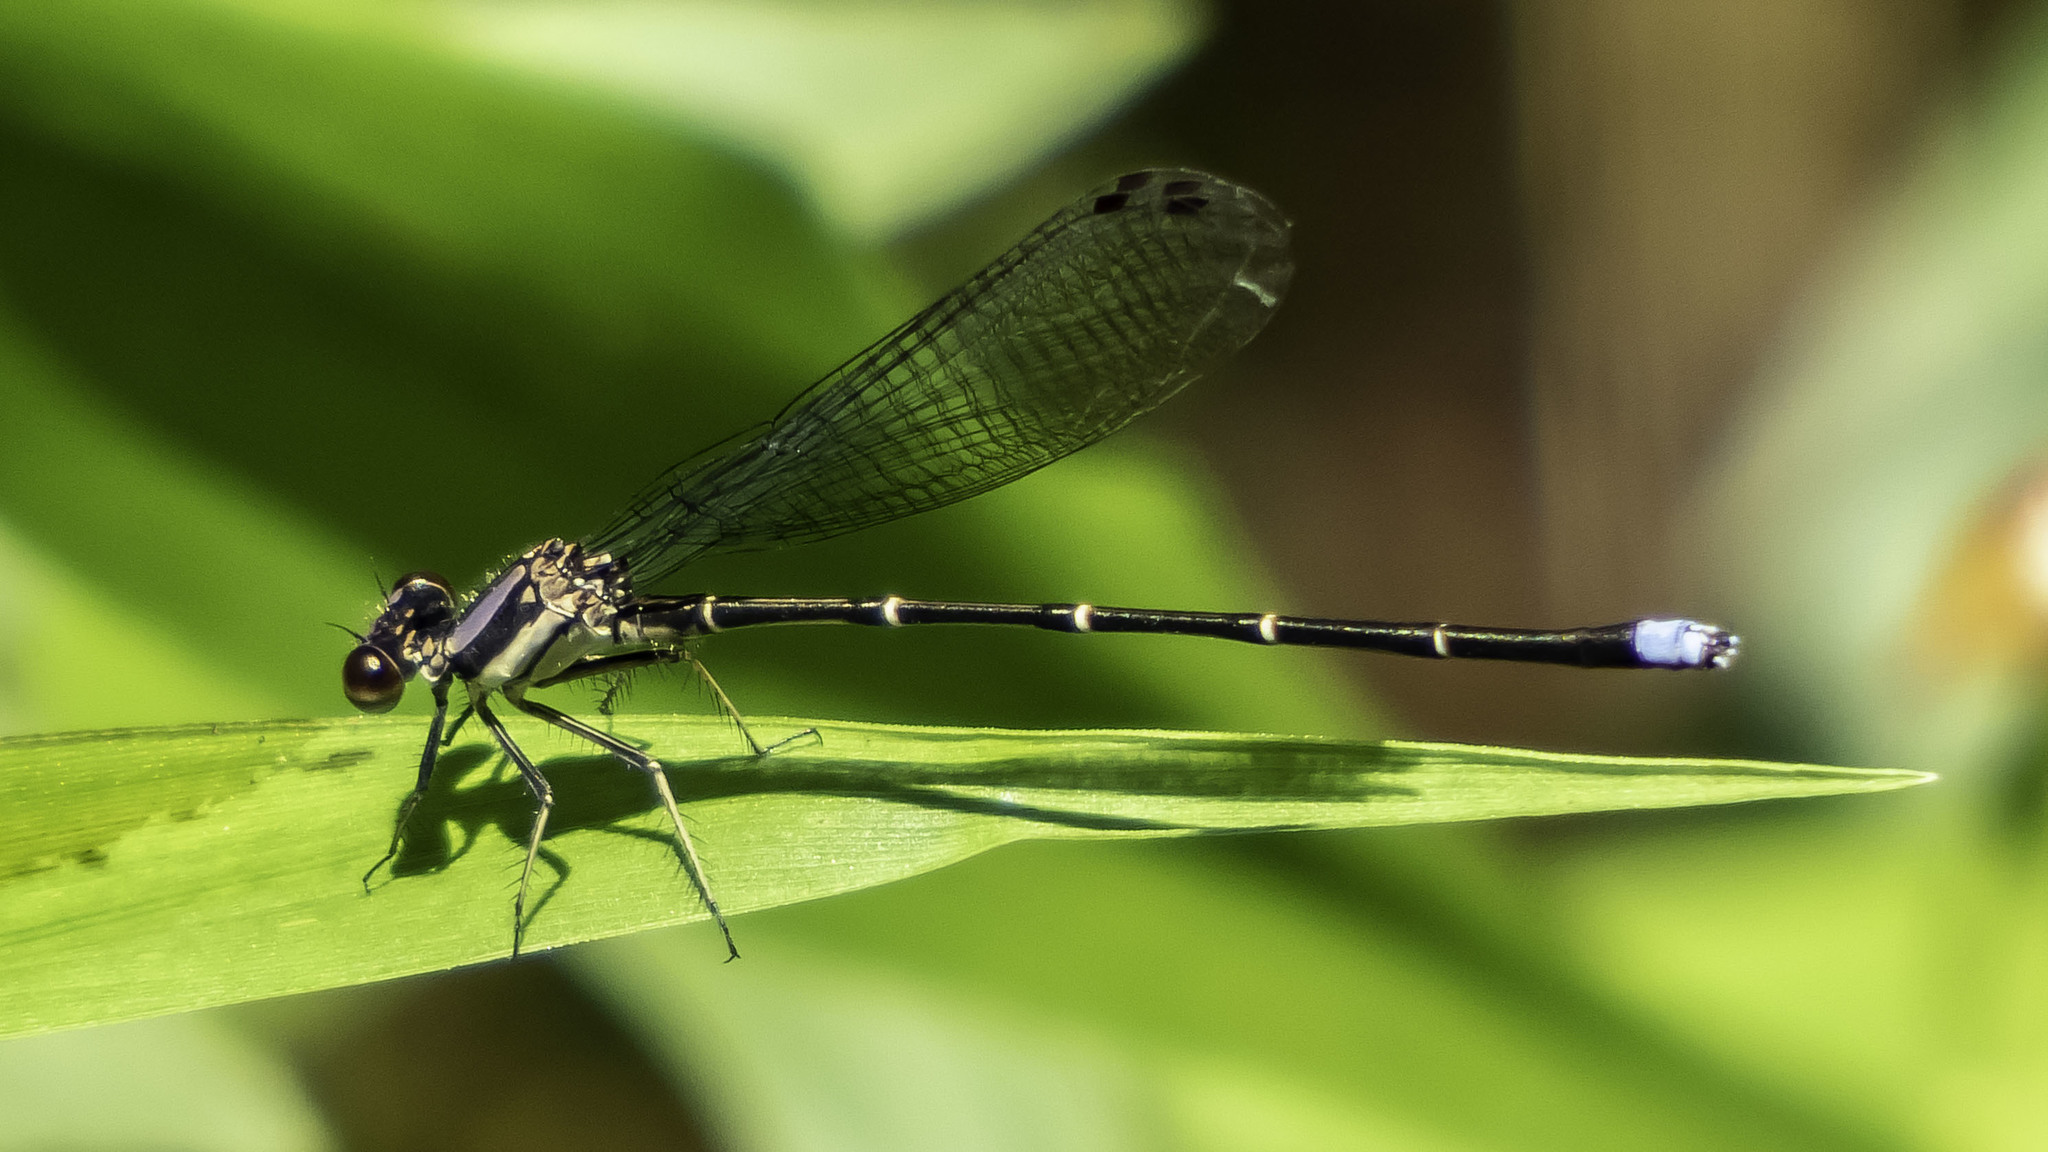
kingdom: Animalia
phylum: Arthropoda
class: Insecta
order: Odonata
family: Coenagrionidae
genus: Argia
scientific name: Argia tibialis
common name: Blue-tipped dancer
